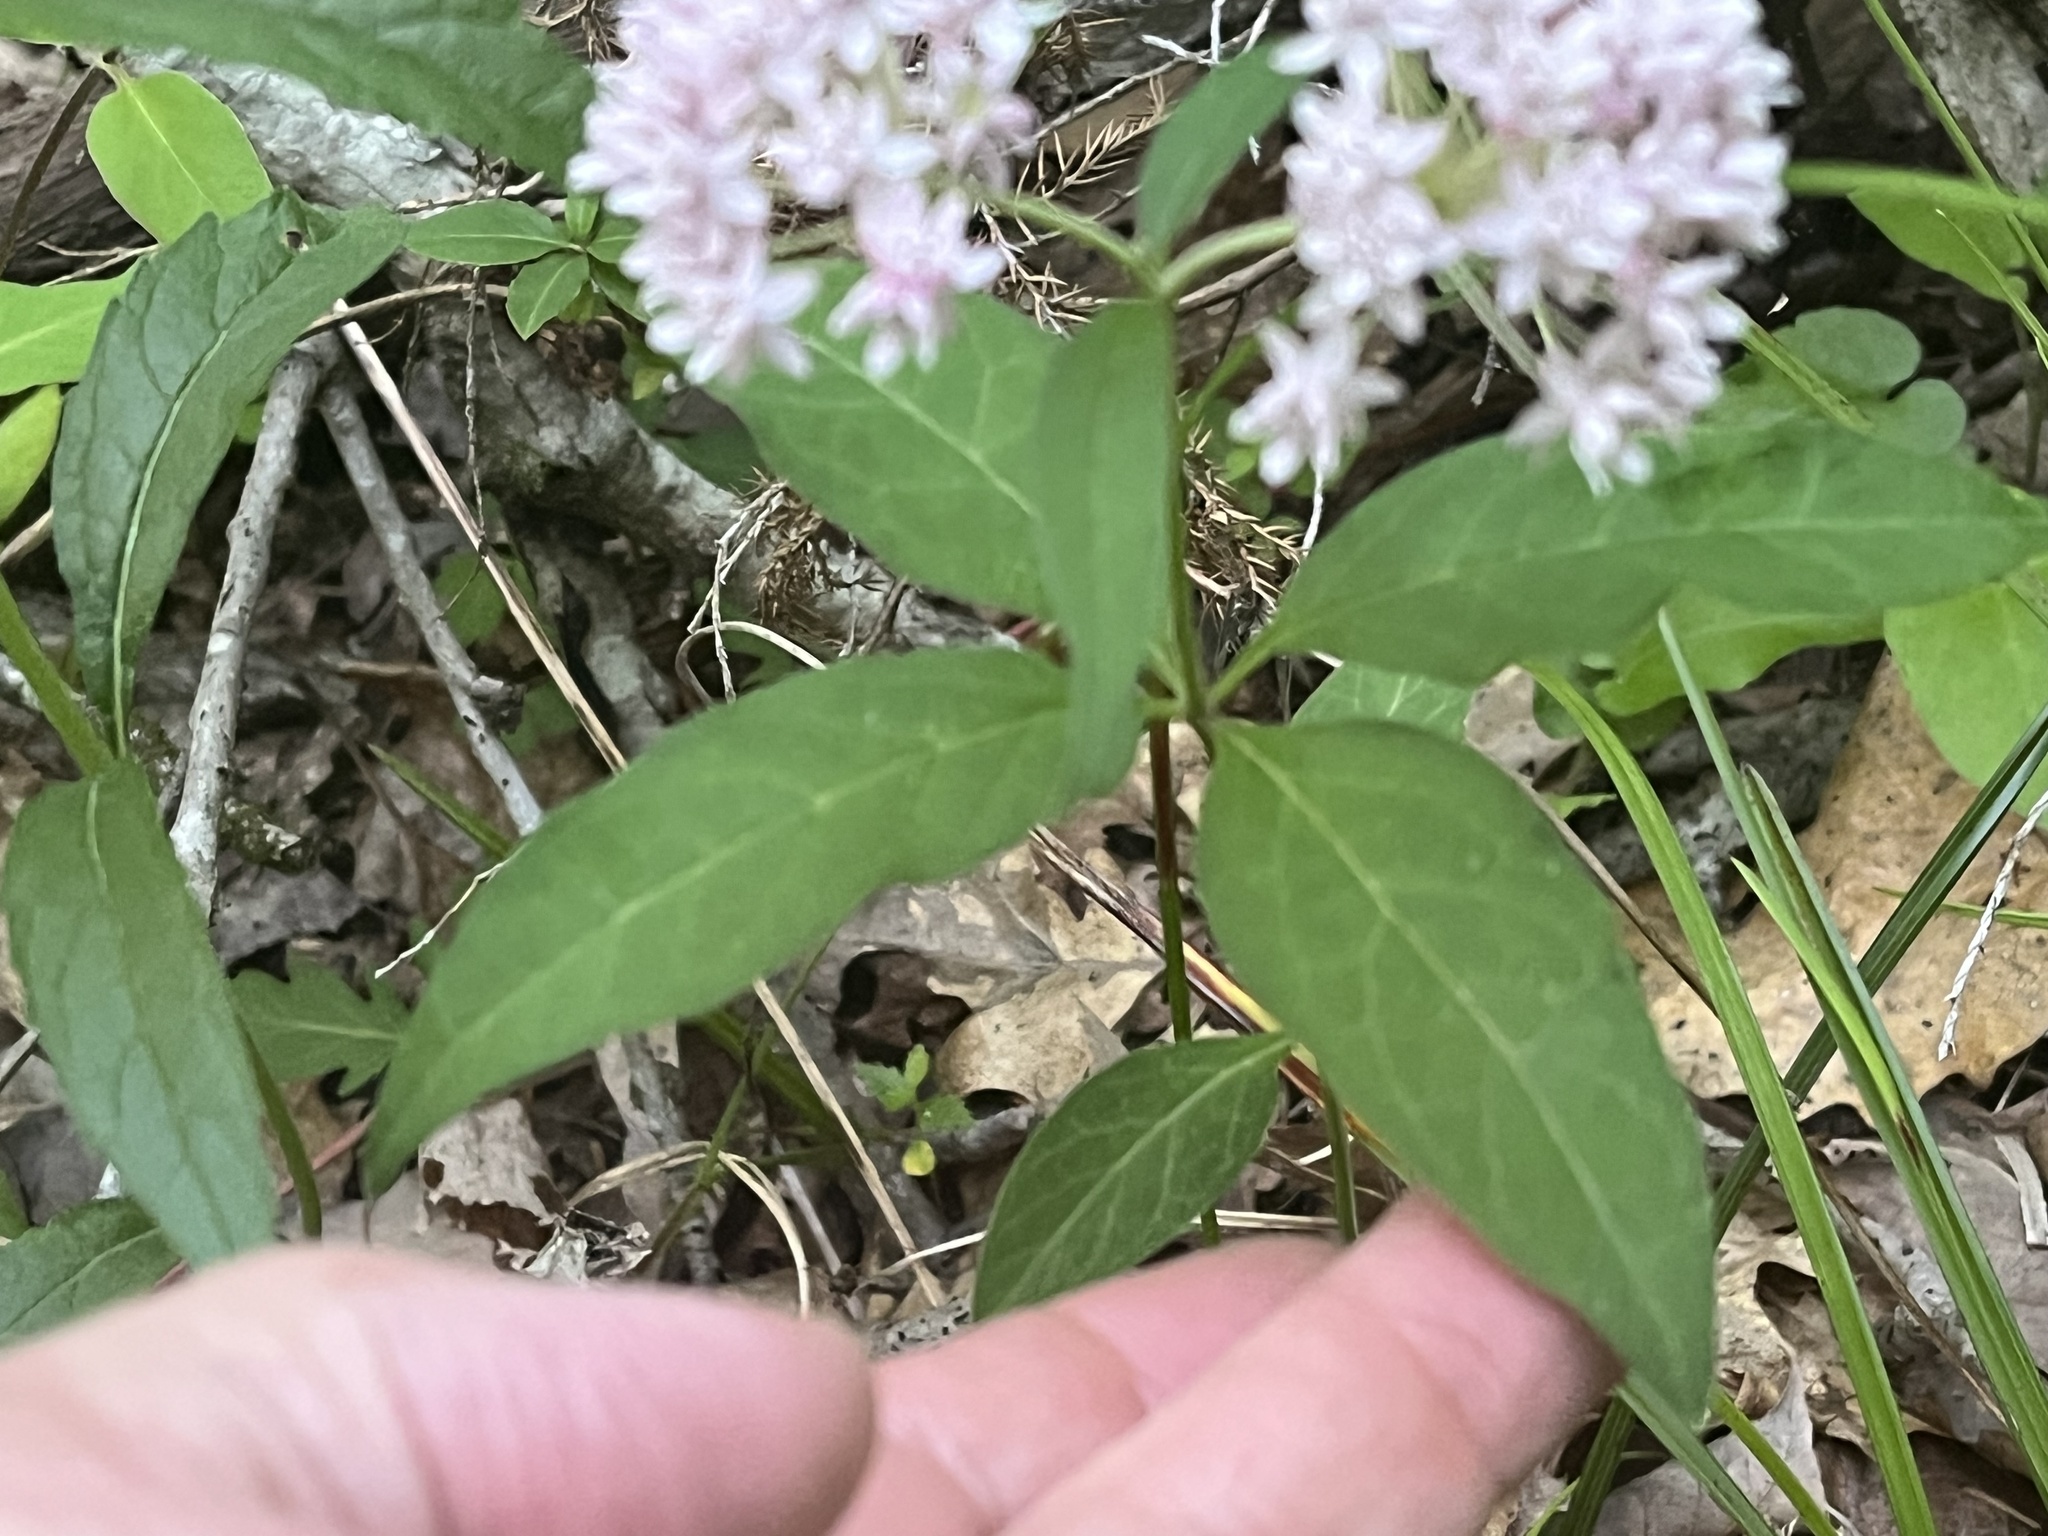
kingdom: Plantae
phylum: Tracheophyta
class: Magnoliopsida
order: Gentianales
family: Apocynaceae
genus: Asclepias
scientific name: Asclepias quadrifolia
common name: Whorled milkweed
